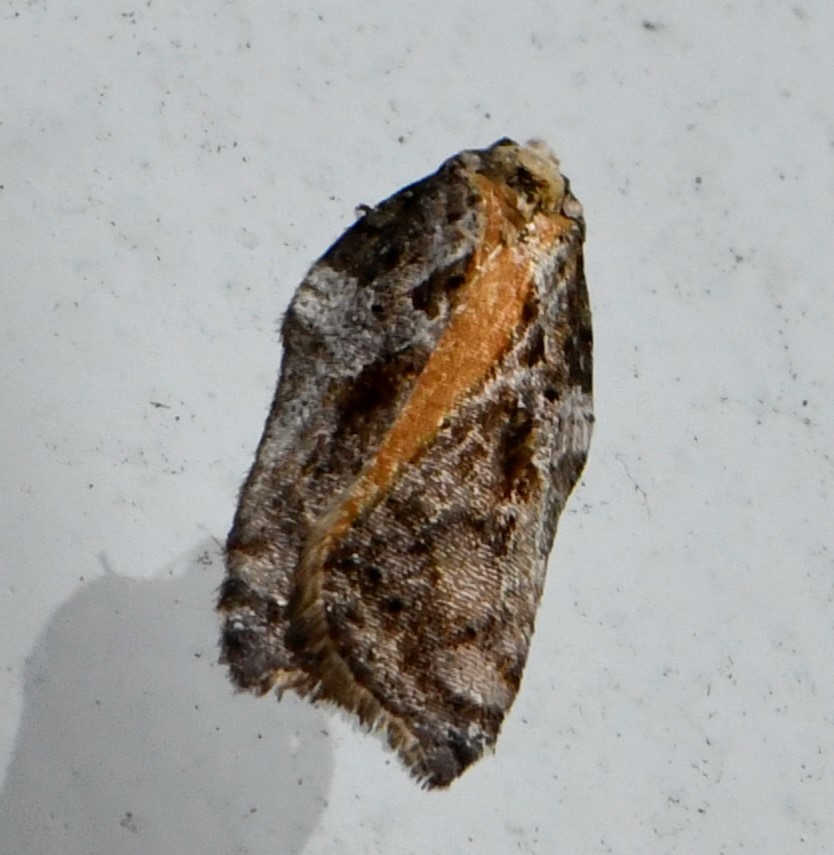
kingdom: Animalia
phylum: Arthropoda
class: Insecta
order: Lepidoptera
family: Tortricidae
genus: Acleris
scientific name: Acleris cristana
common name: Tufted button
